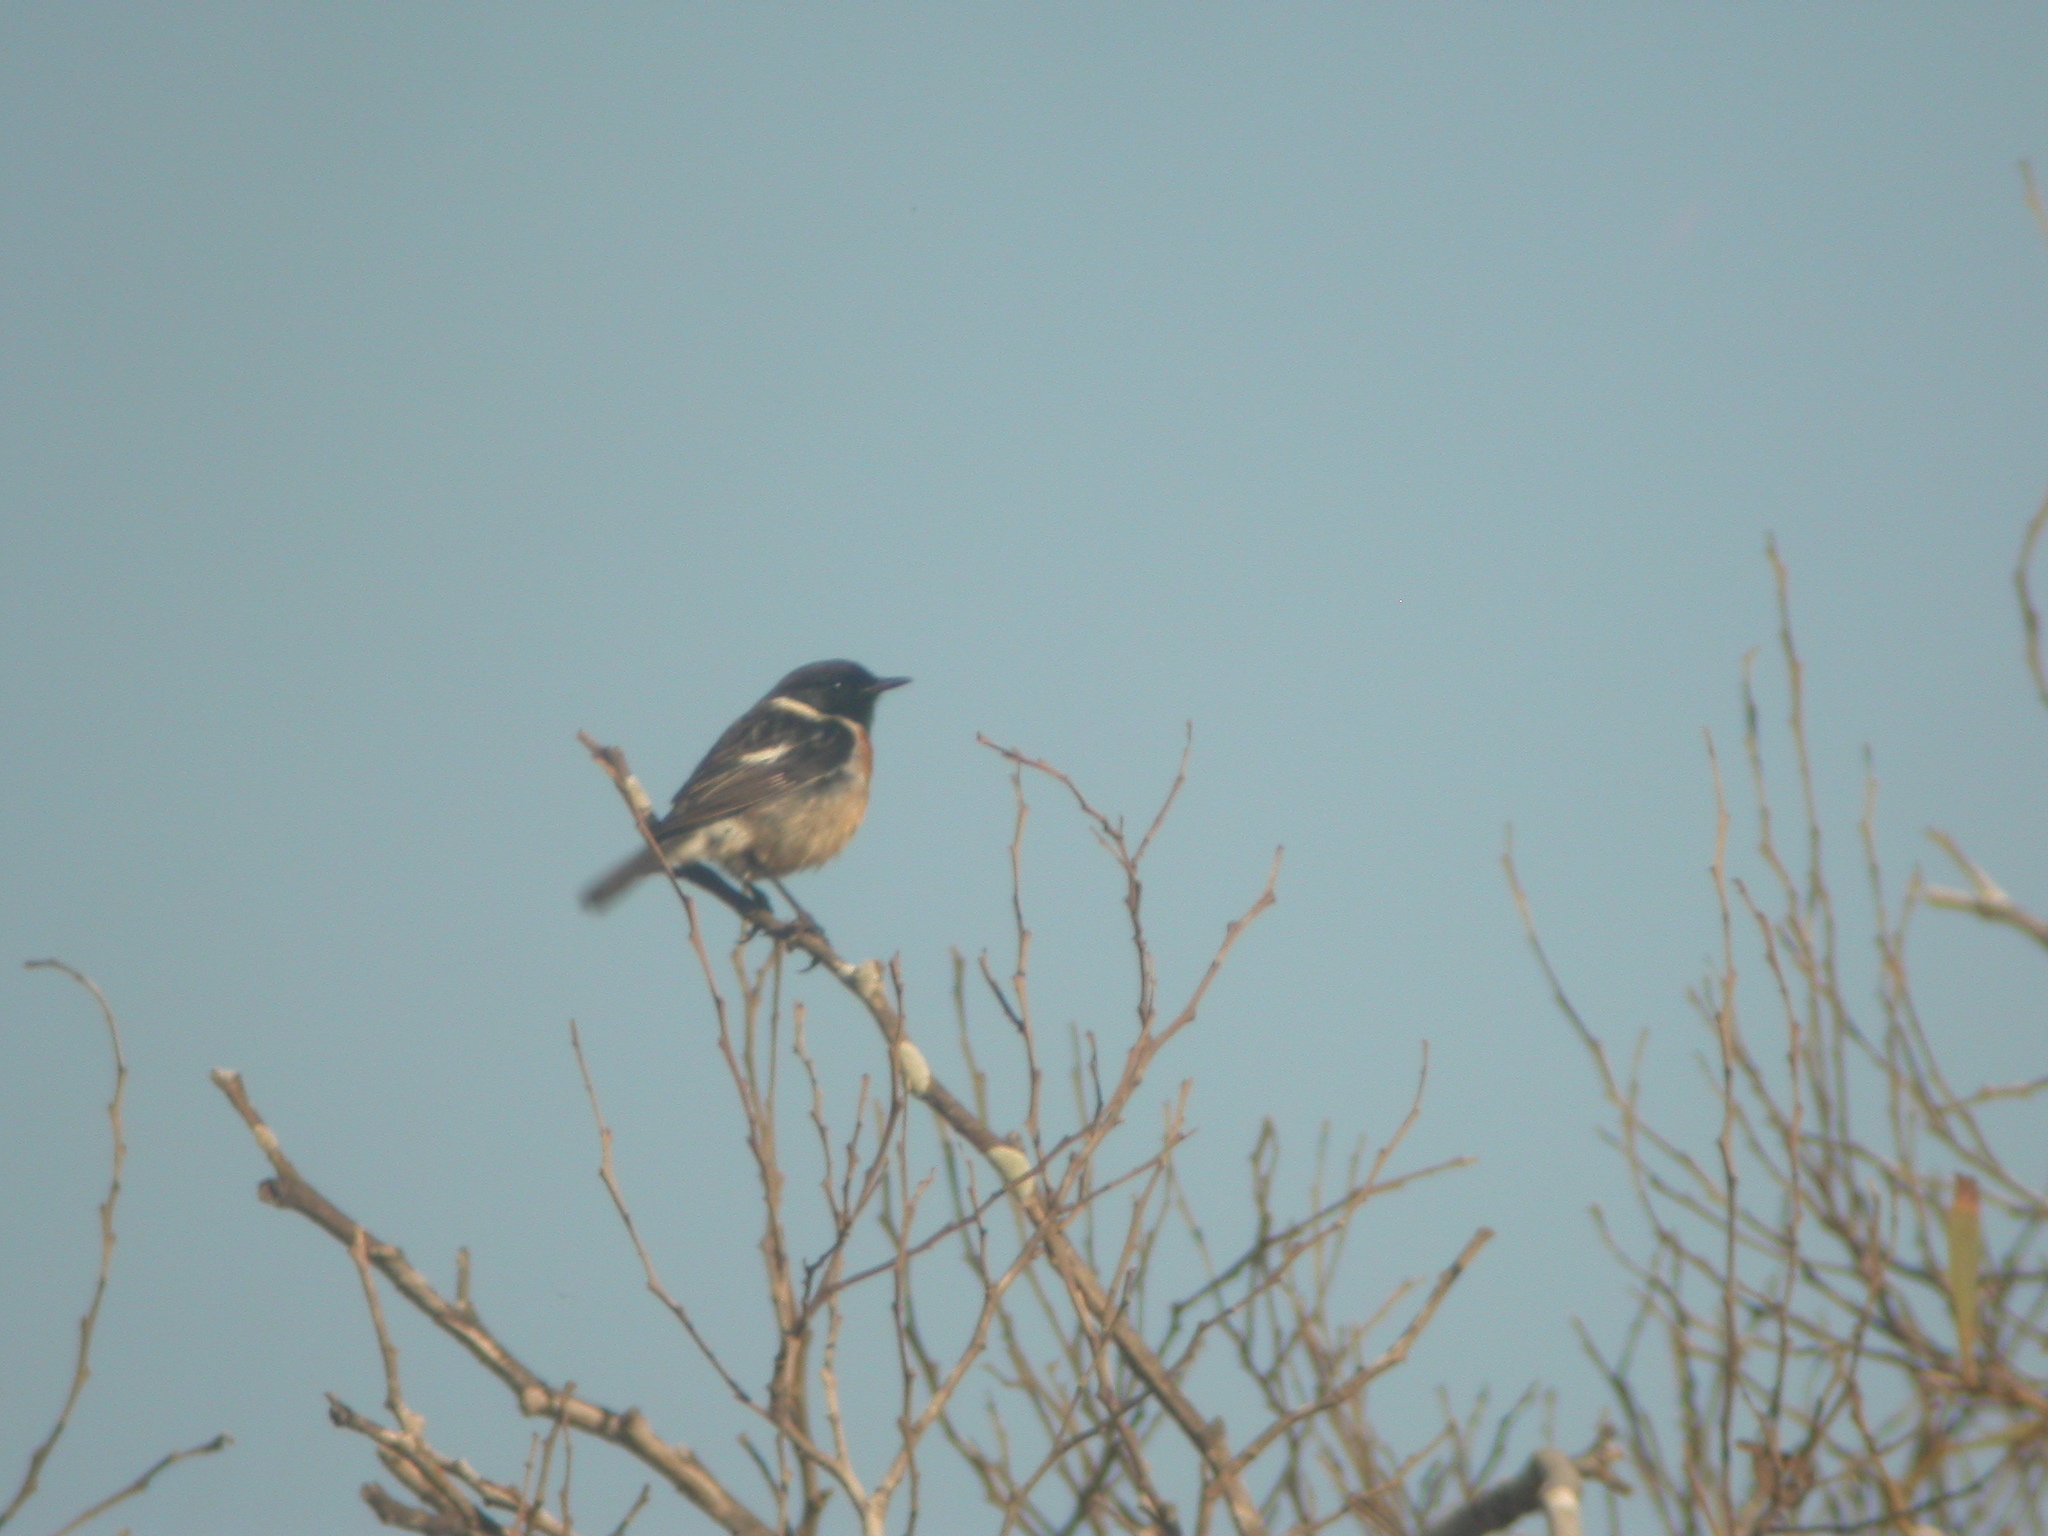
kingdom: Animalia
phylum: Chordata
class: Aves
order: Passeriformes
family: Muscicapidae
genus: Saxicola
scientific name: Saxicola rubicola
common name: European stonechat
